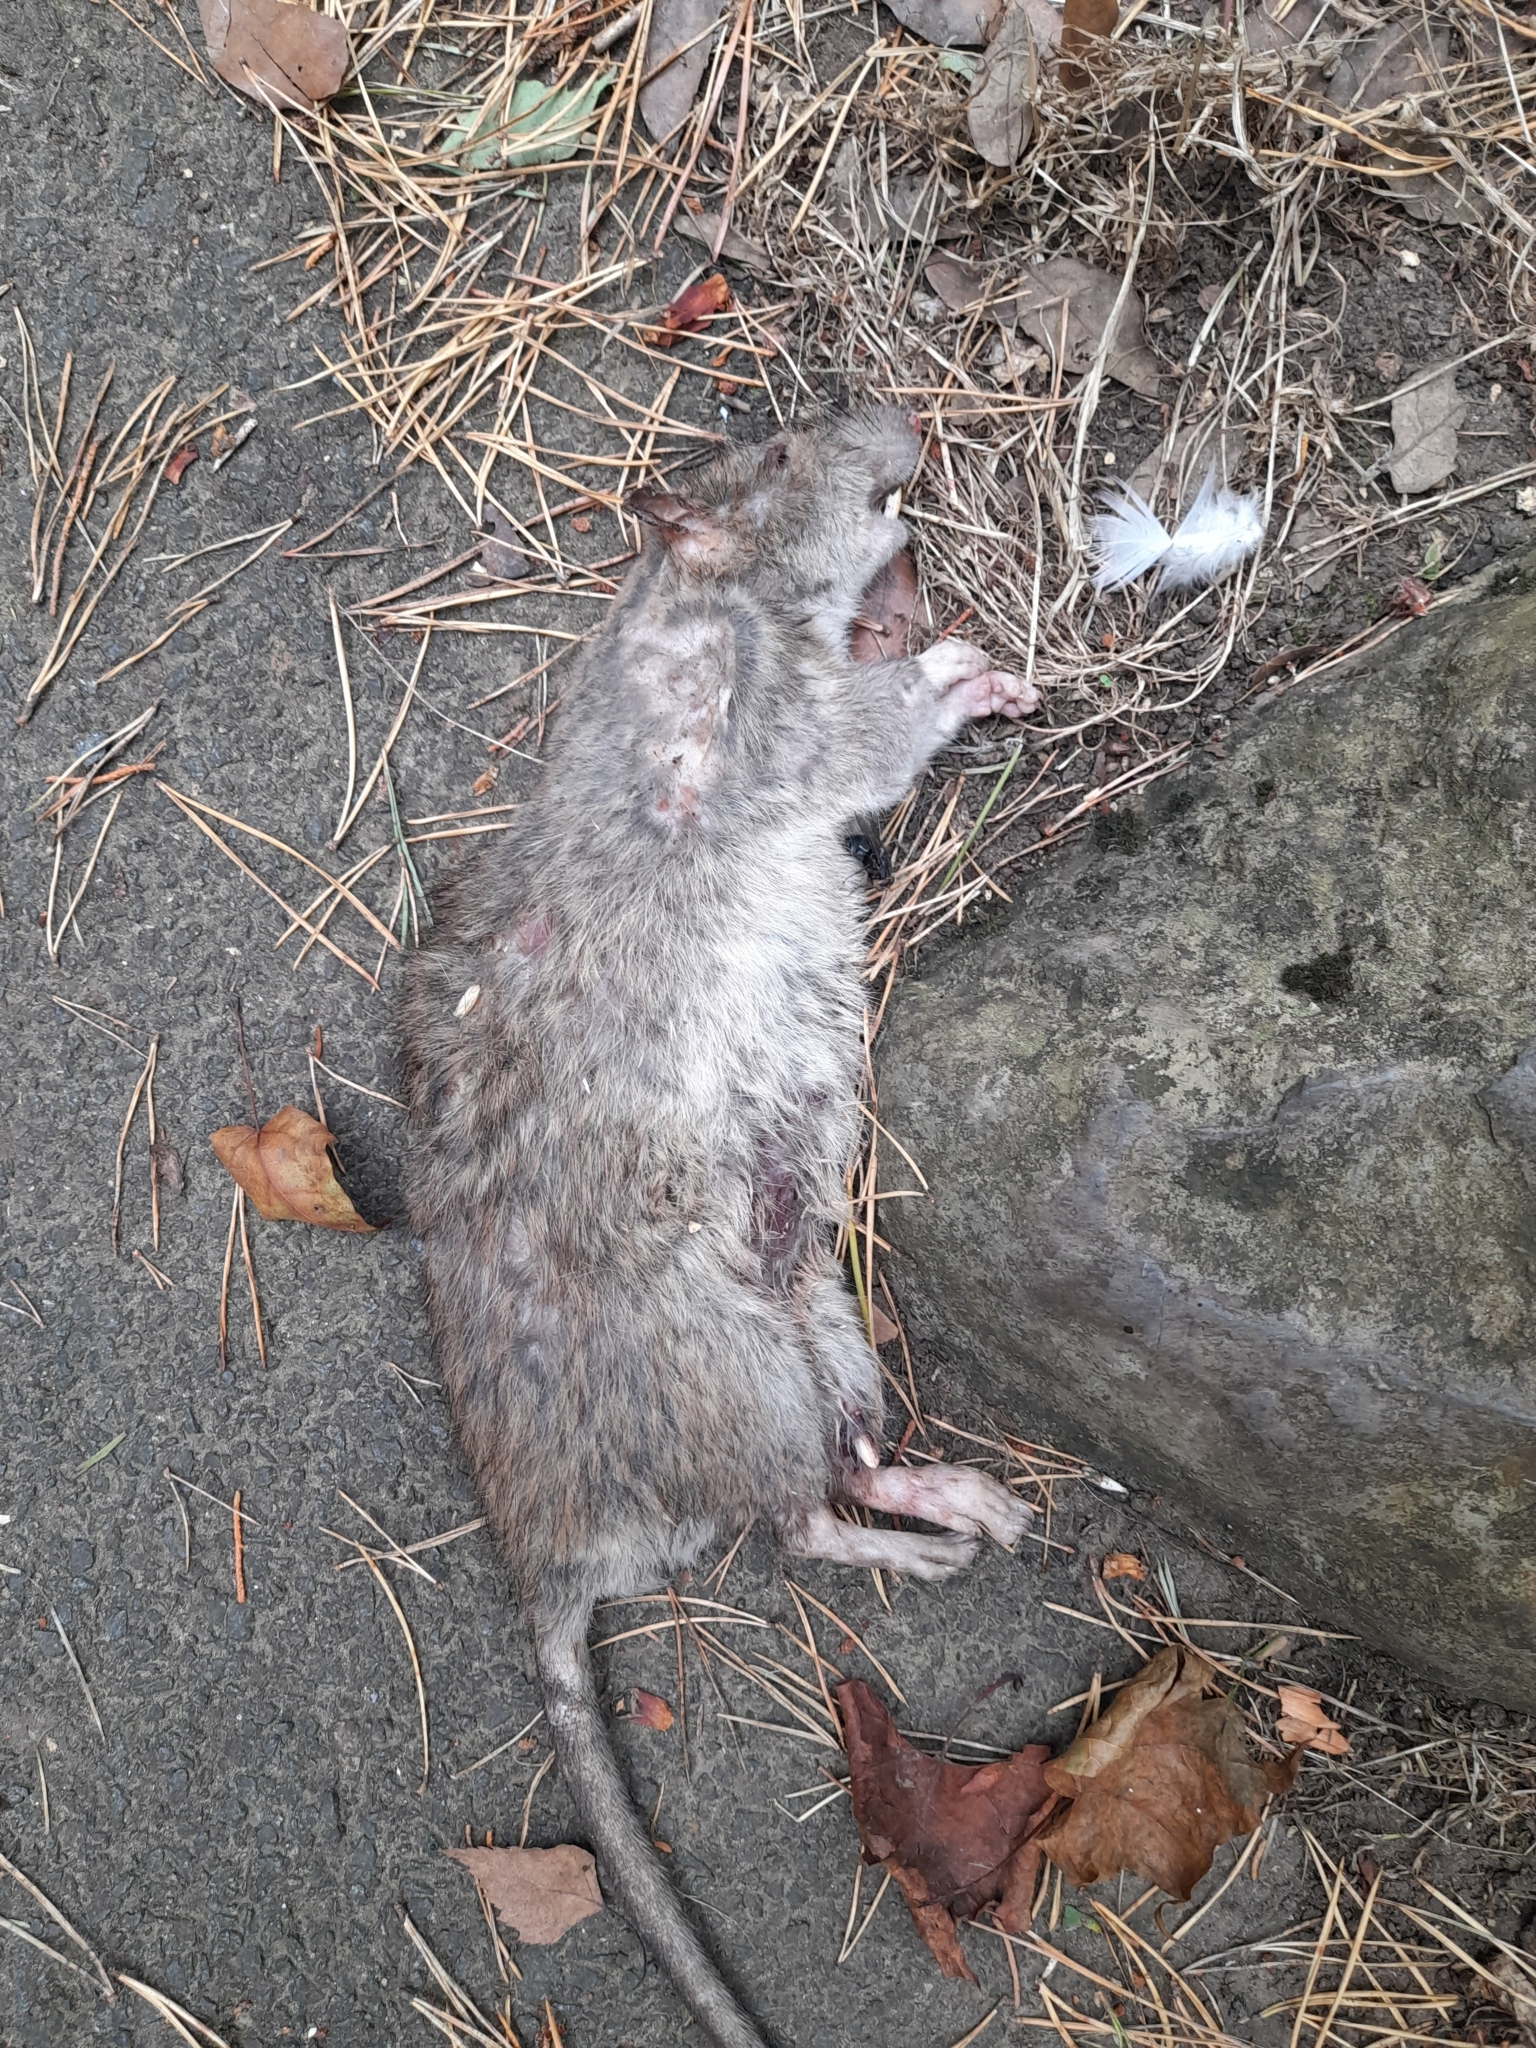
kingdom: Animalia
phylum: Chordata
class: Mammalia
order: Rodentia
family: Muridae
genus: Rattus
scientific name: Rattus norvegicus
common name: Brown rat
